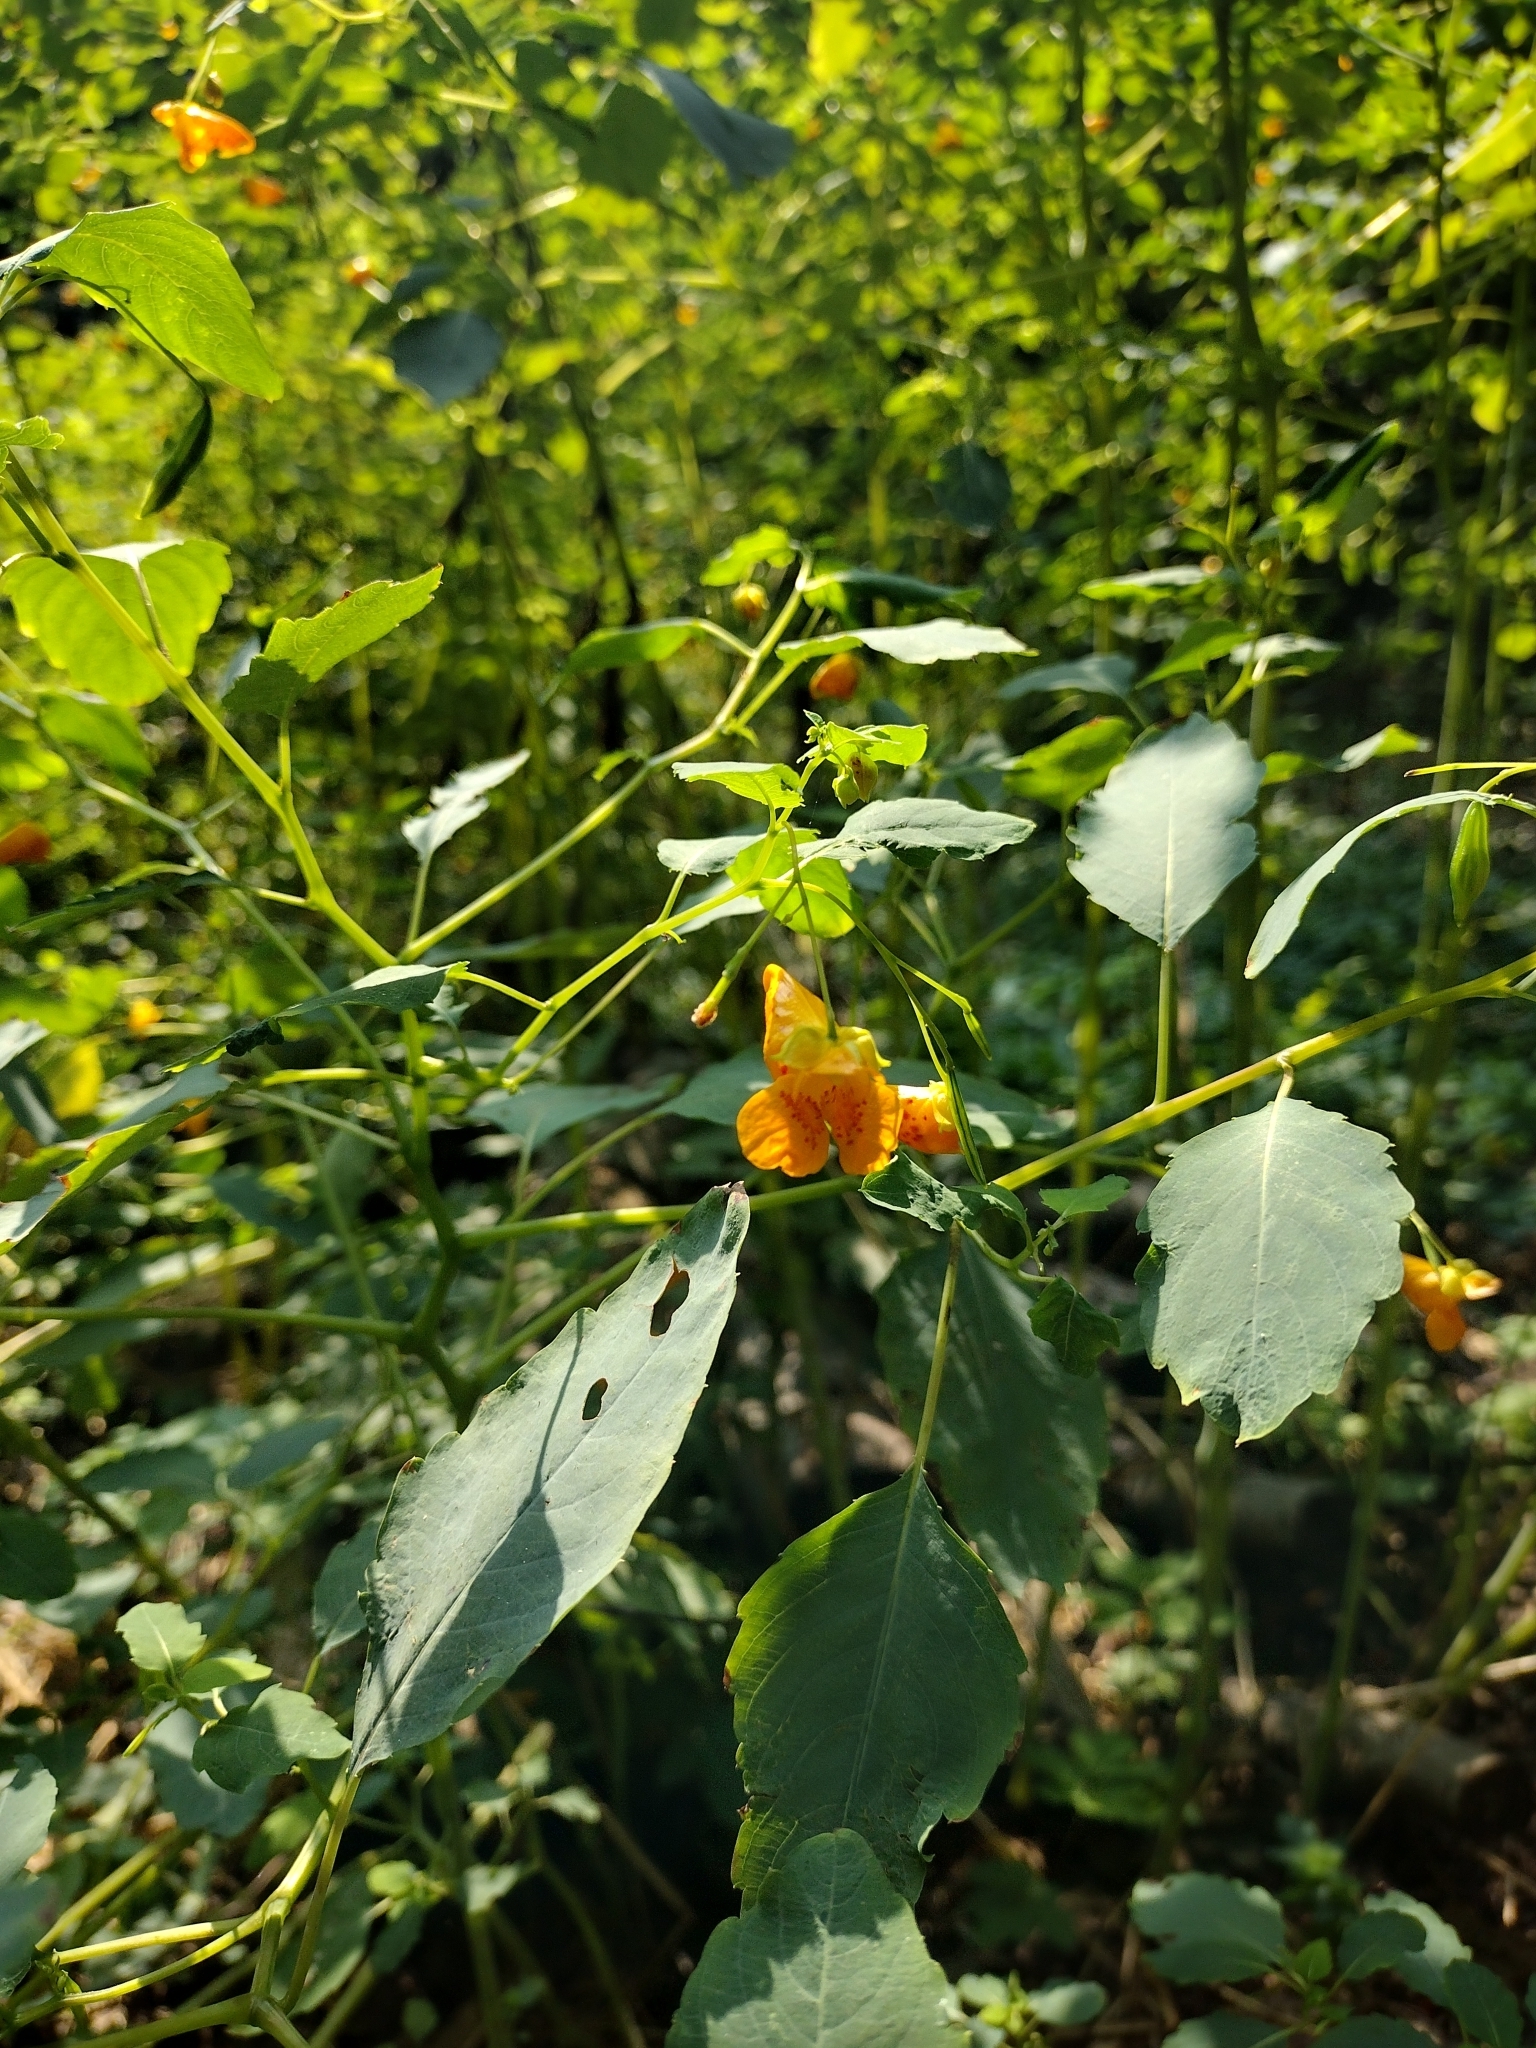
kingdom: Plantae
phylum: Tracheophyta
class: Magnoliopsida
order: Ericales
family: Balsaminaceae
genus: Impatiens
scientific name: Impatiens capensis
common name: Orange balsam
